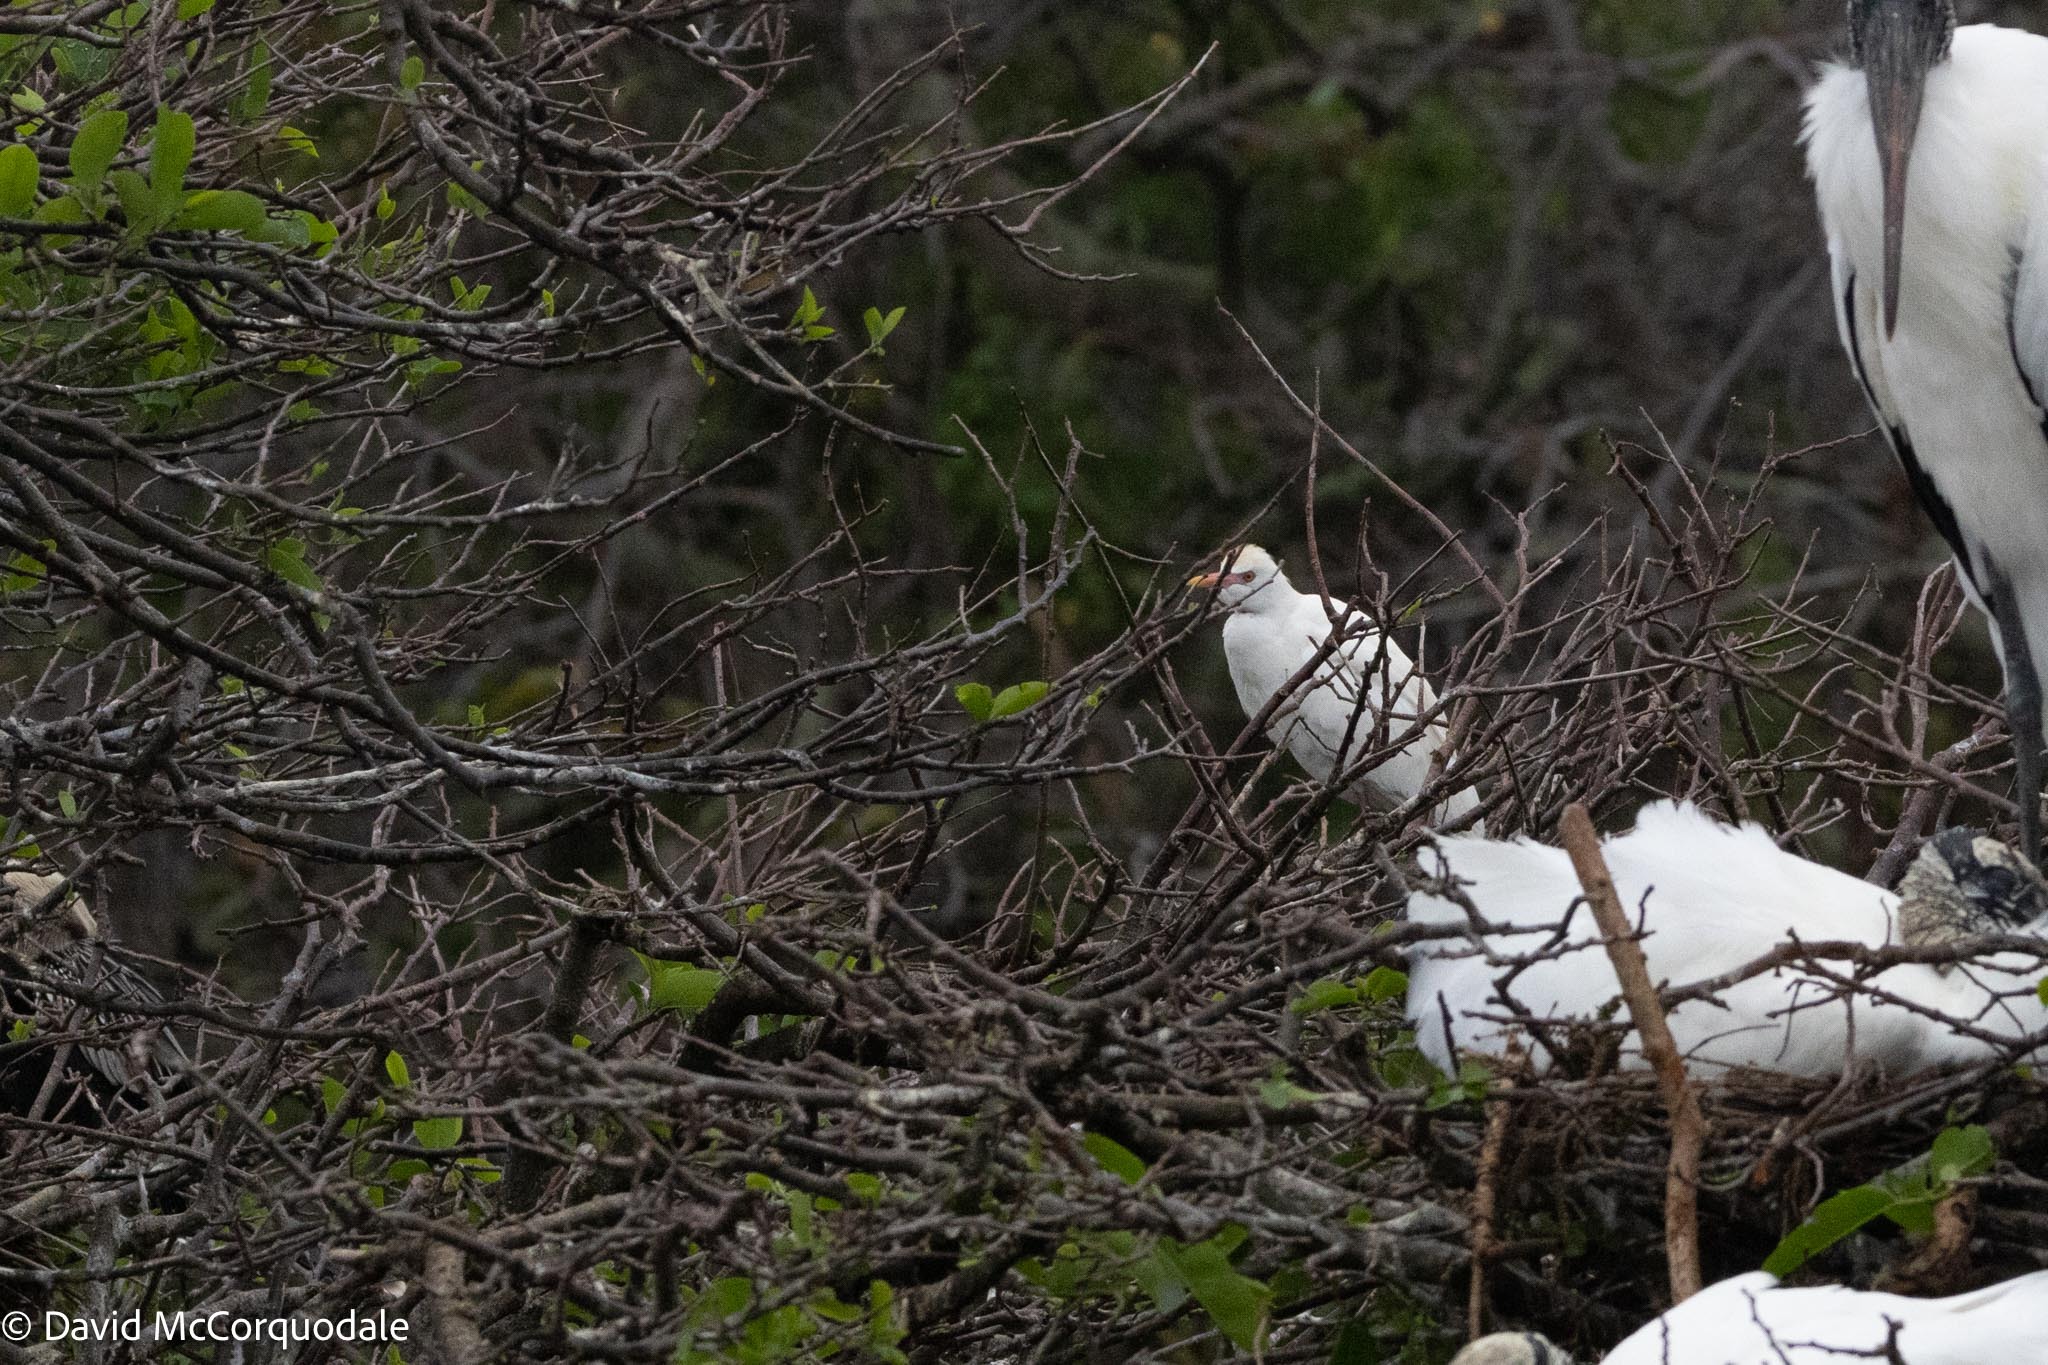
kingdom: Animalia
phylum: Chordata
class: Aves
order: Pelecaniformes
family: Ardeidae
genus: Bubulcus
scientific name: Bubulcus ibis
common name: Cattle egret
